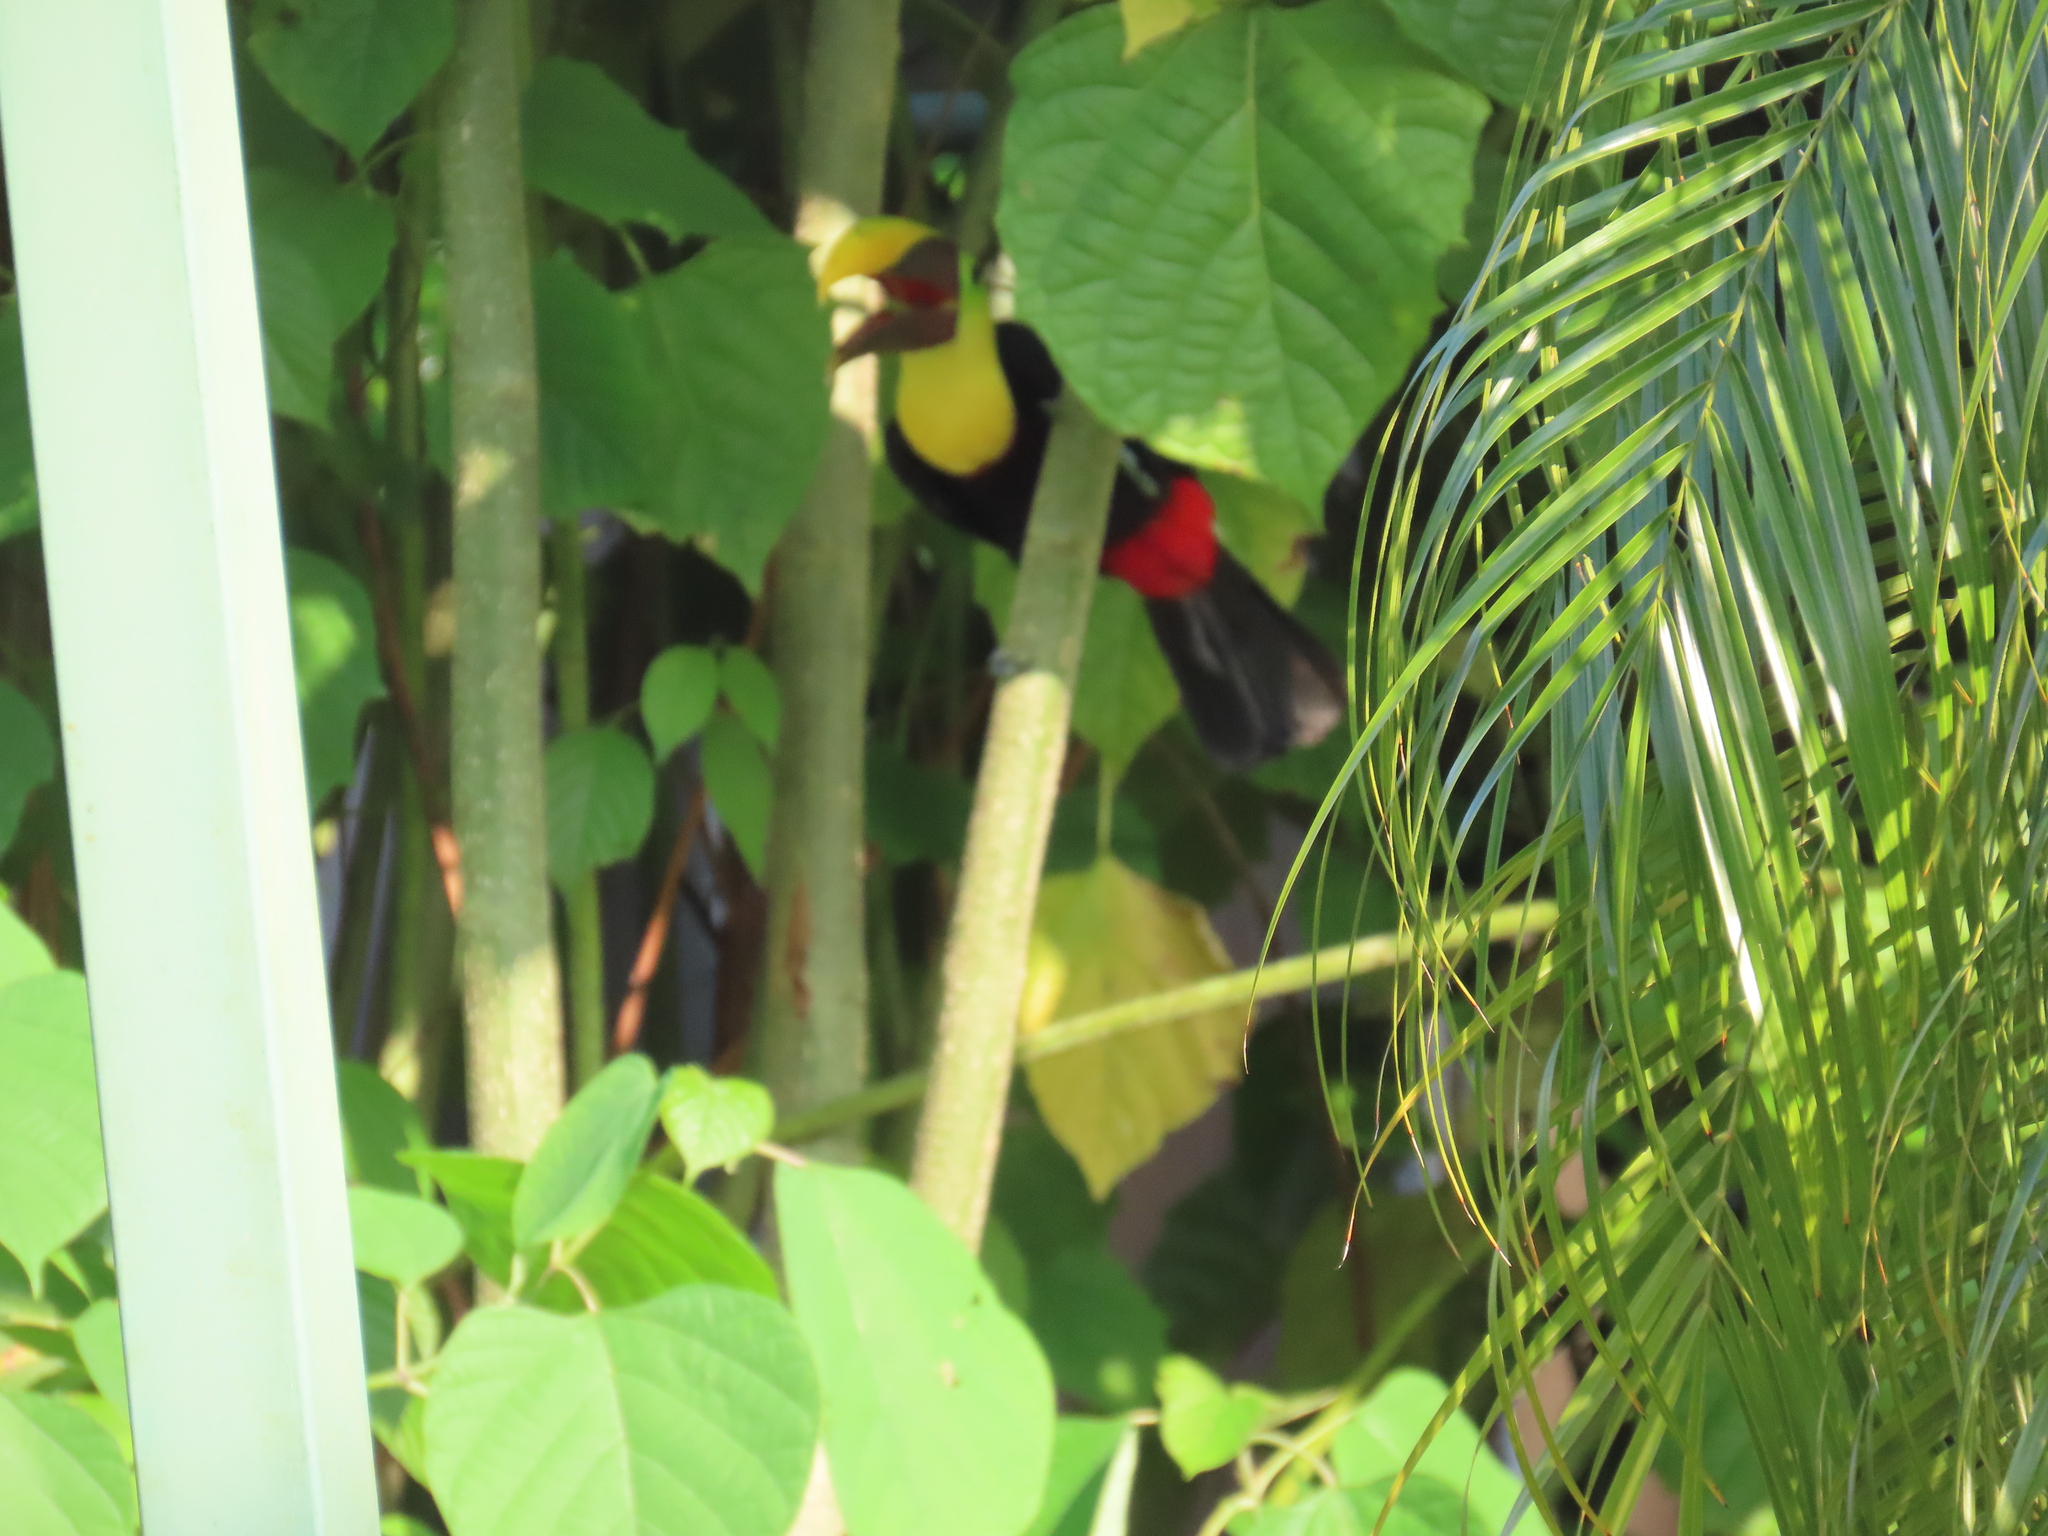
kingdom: Animalia
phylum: Chordata
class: Aves
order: Piciformes
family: Ramphastidae
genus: Ramphastos
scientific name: Ramphastos ambiguus
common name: Yellow-throated toucan
